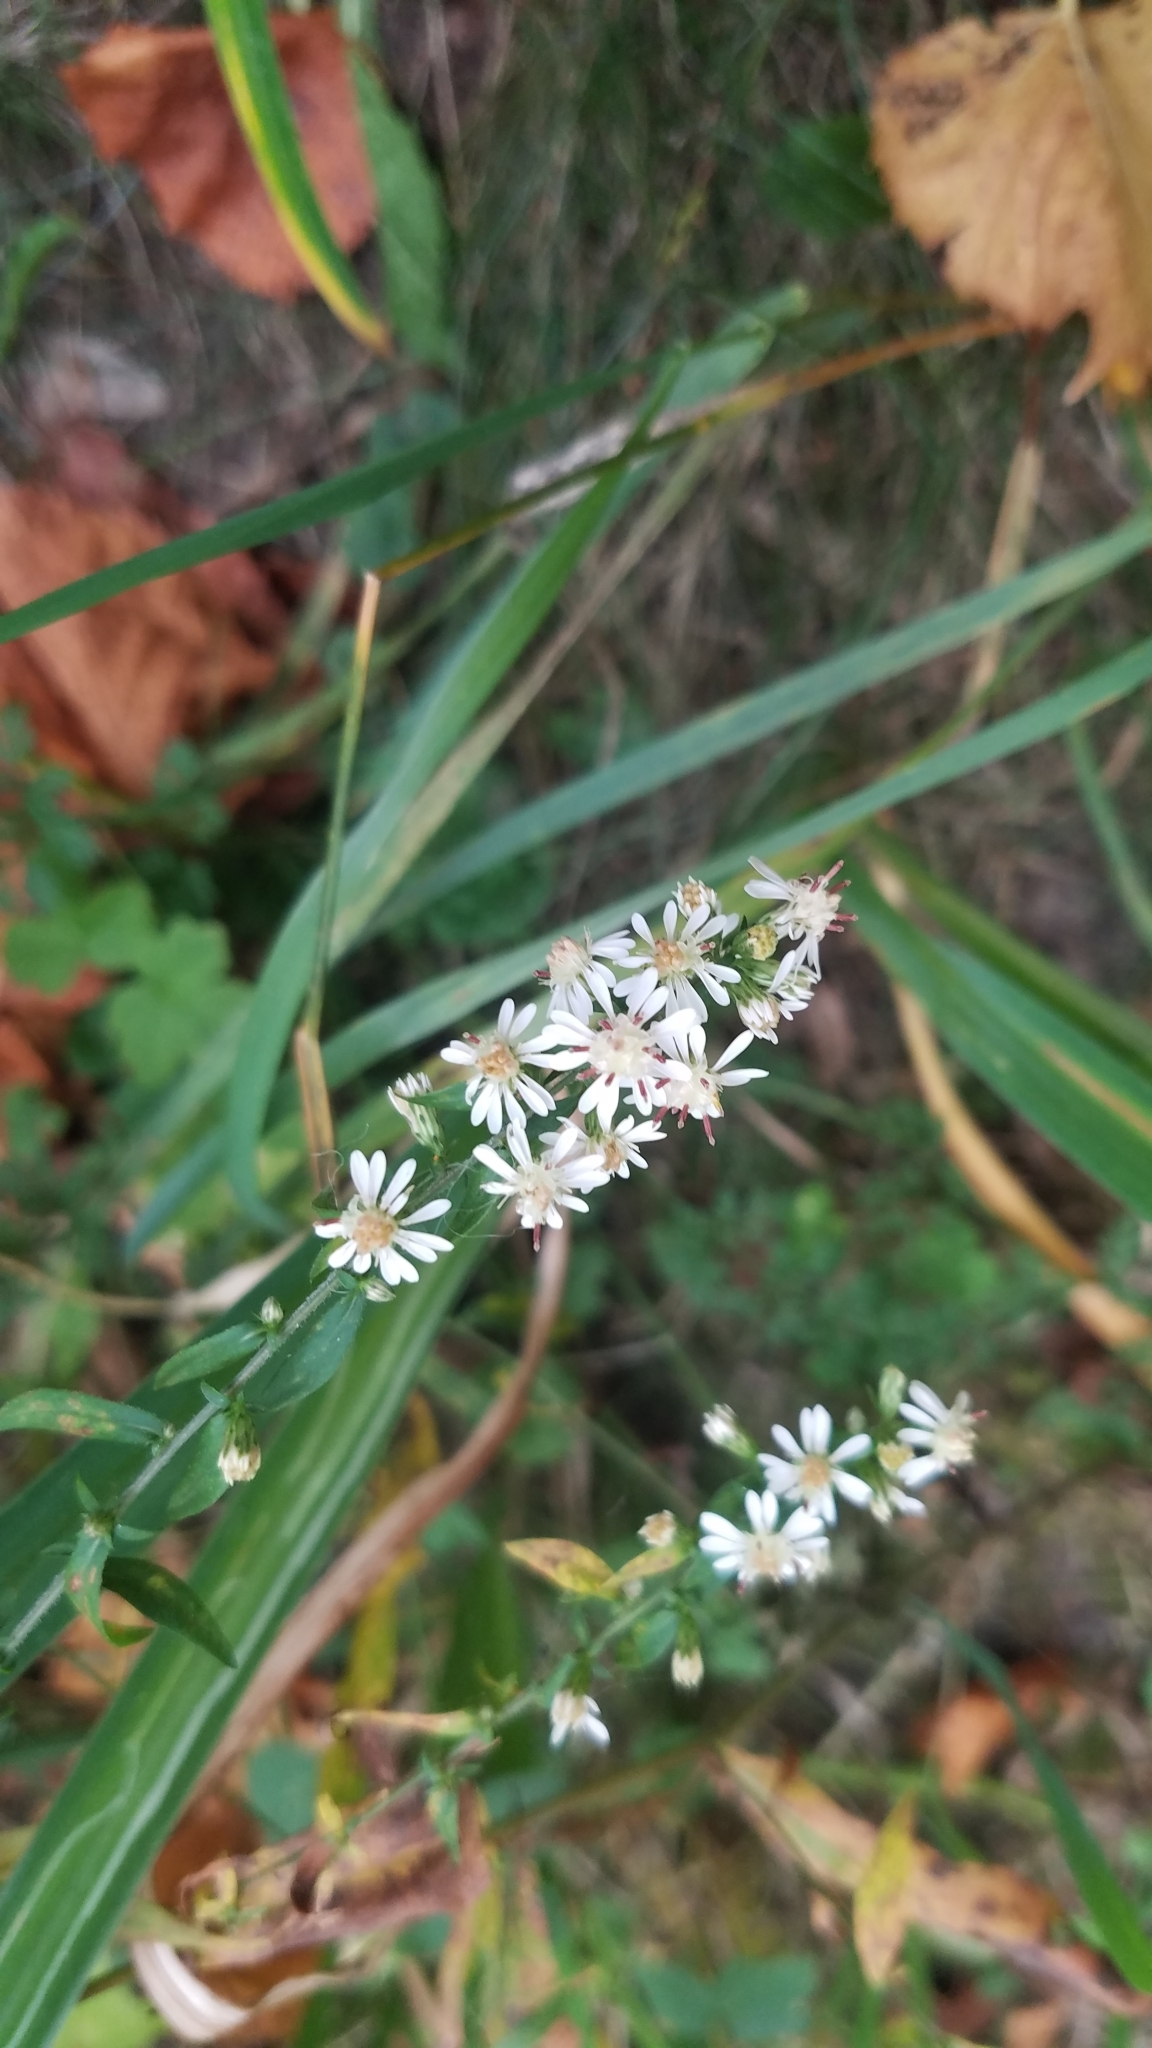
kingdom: Plantae
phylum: Tracheophyta
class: Magnoliopsida
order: Asterales
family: Asteraceae
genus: Symphyotrichum
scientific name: Symphyotrichum lateriflorum
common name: Calico aster
